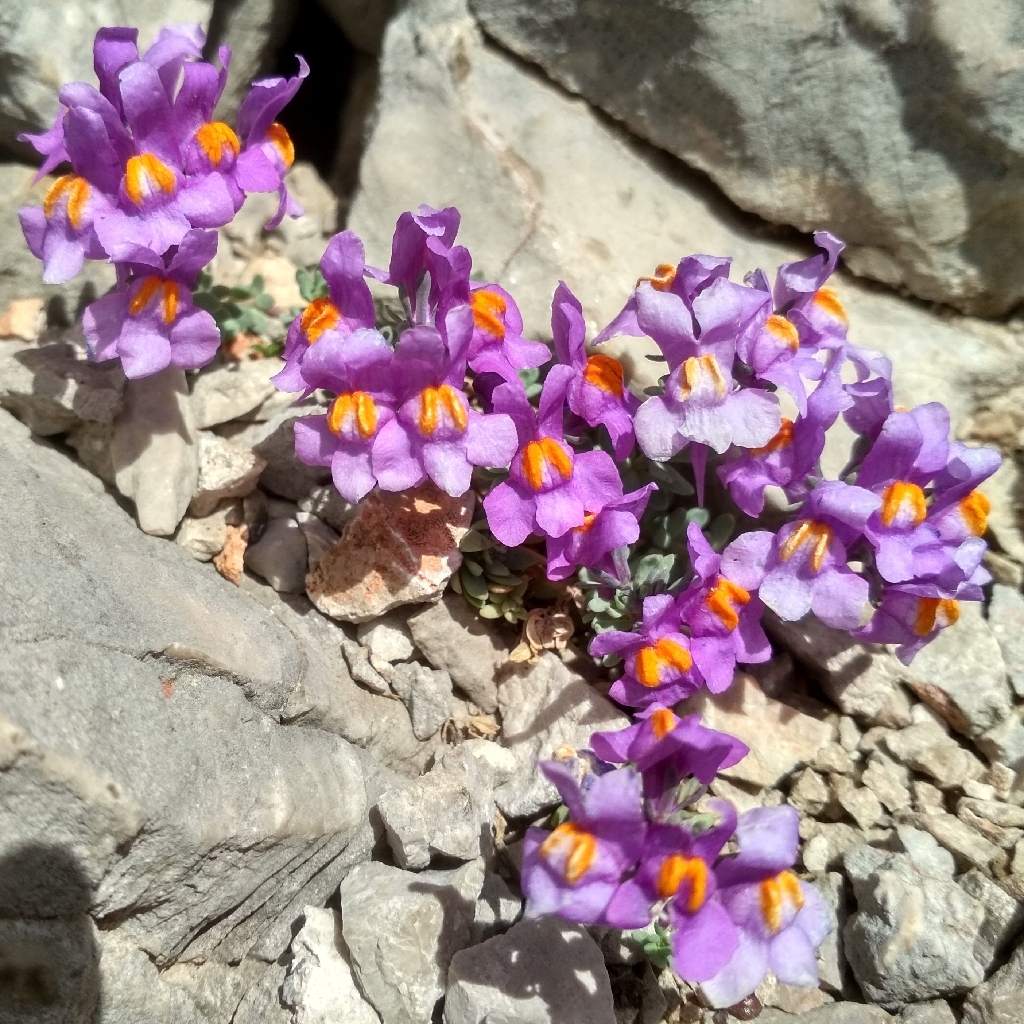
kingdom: Plantae
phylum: Tracheophyta
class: Magnoliopsida
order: Lamiales
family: Plantaginaceae
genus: Linaria
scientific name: Linaria alpina
